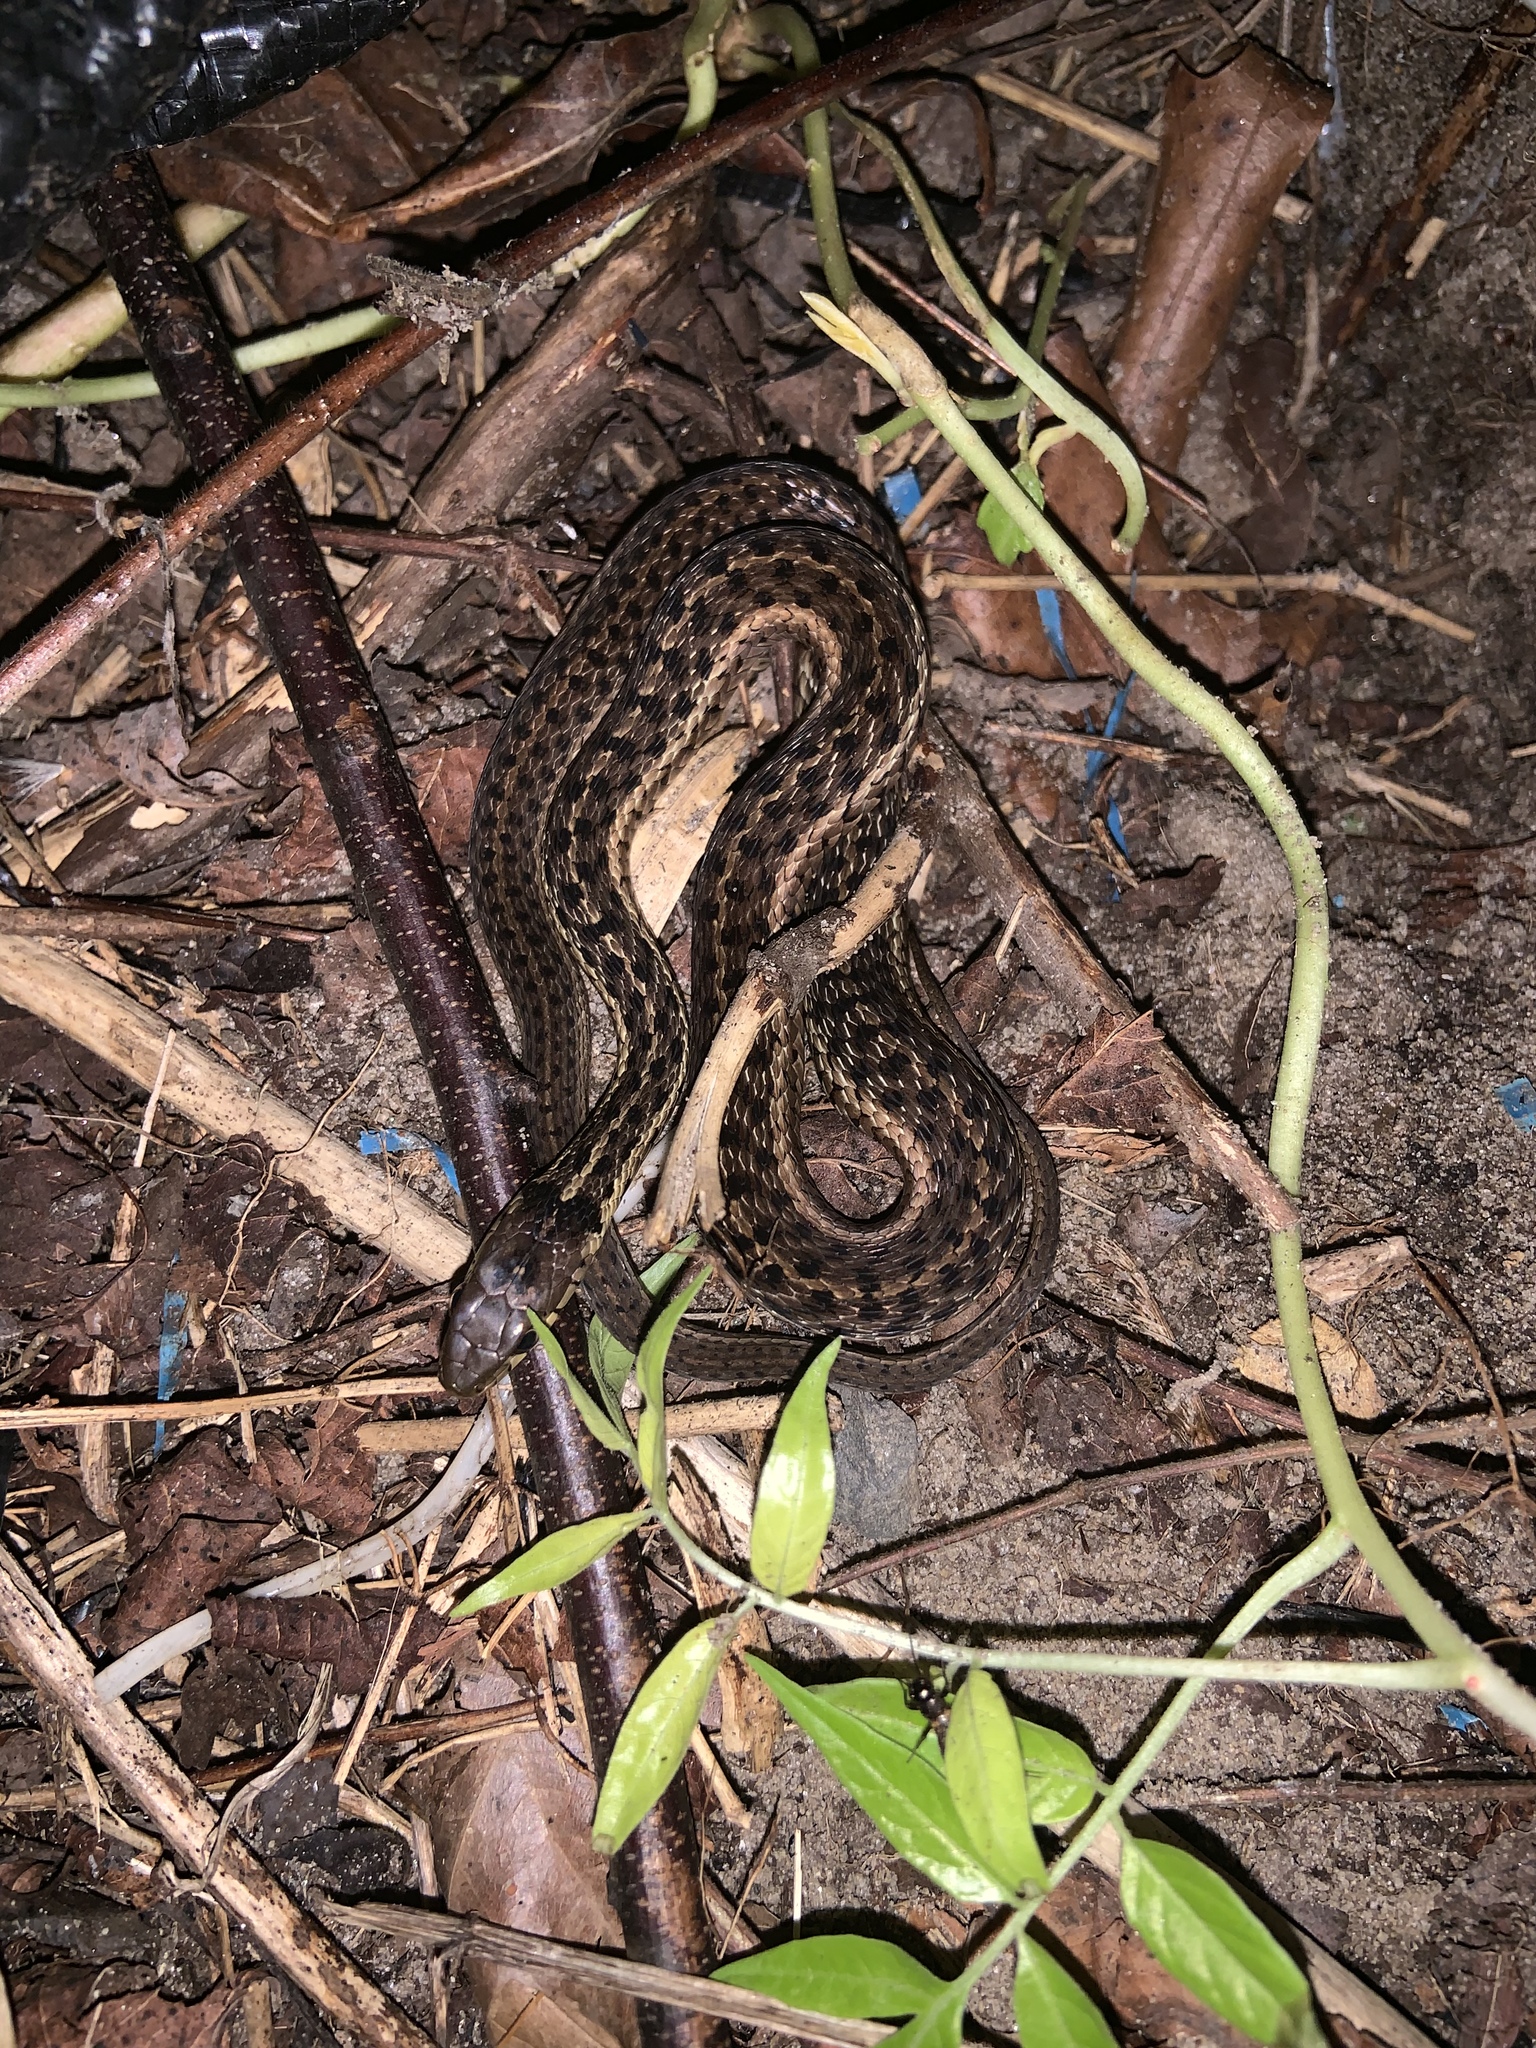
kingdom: Animalia
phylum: Chordata
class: Squamata
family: Colubridae
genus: Thamnophis
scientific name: Thamnophis sirtalis
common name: Common garter snake
